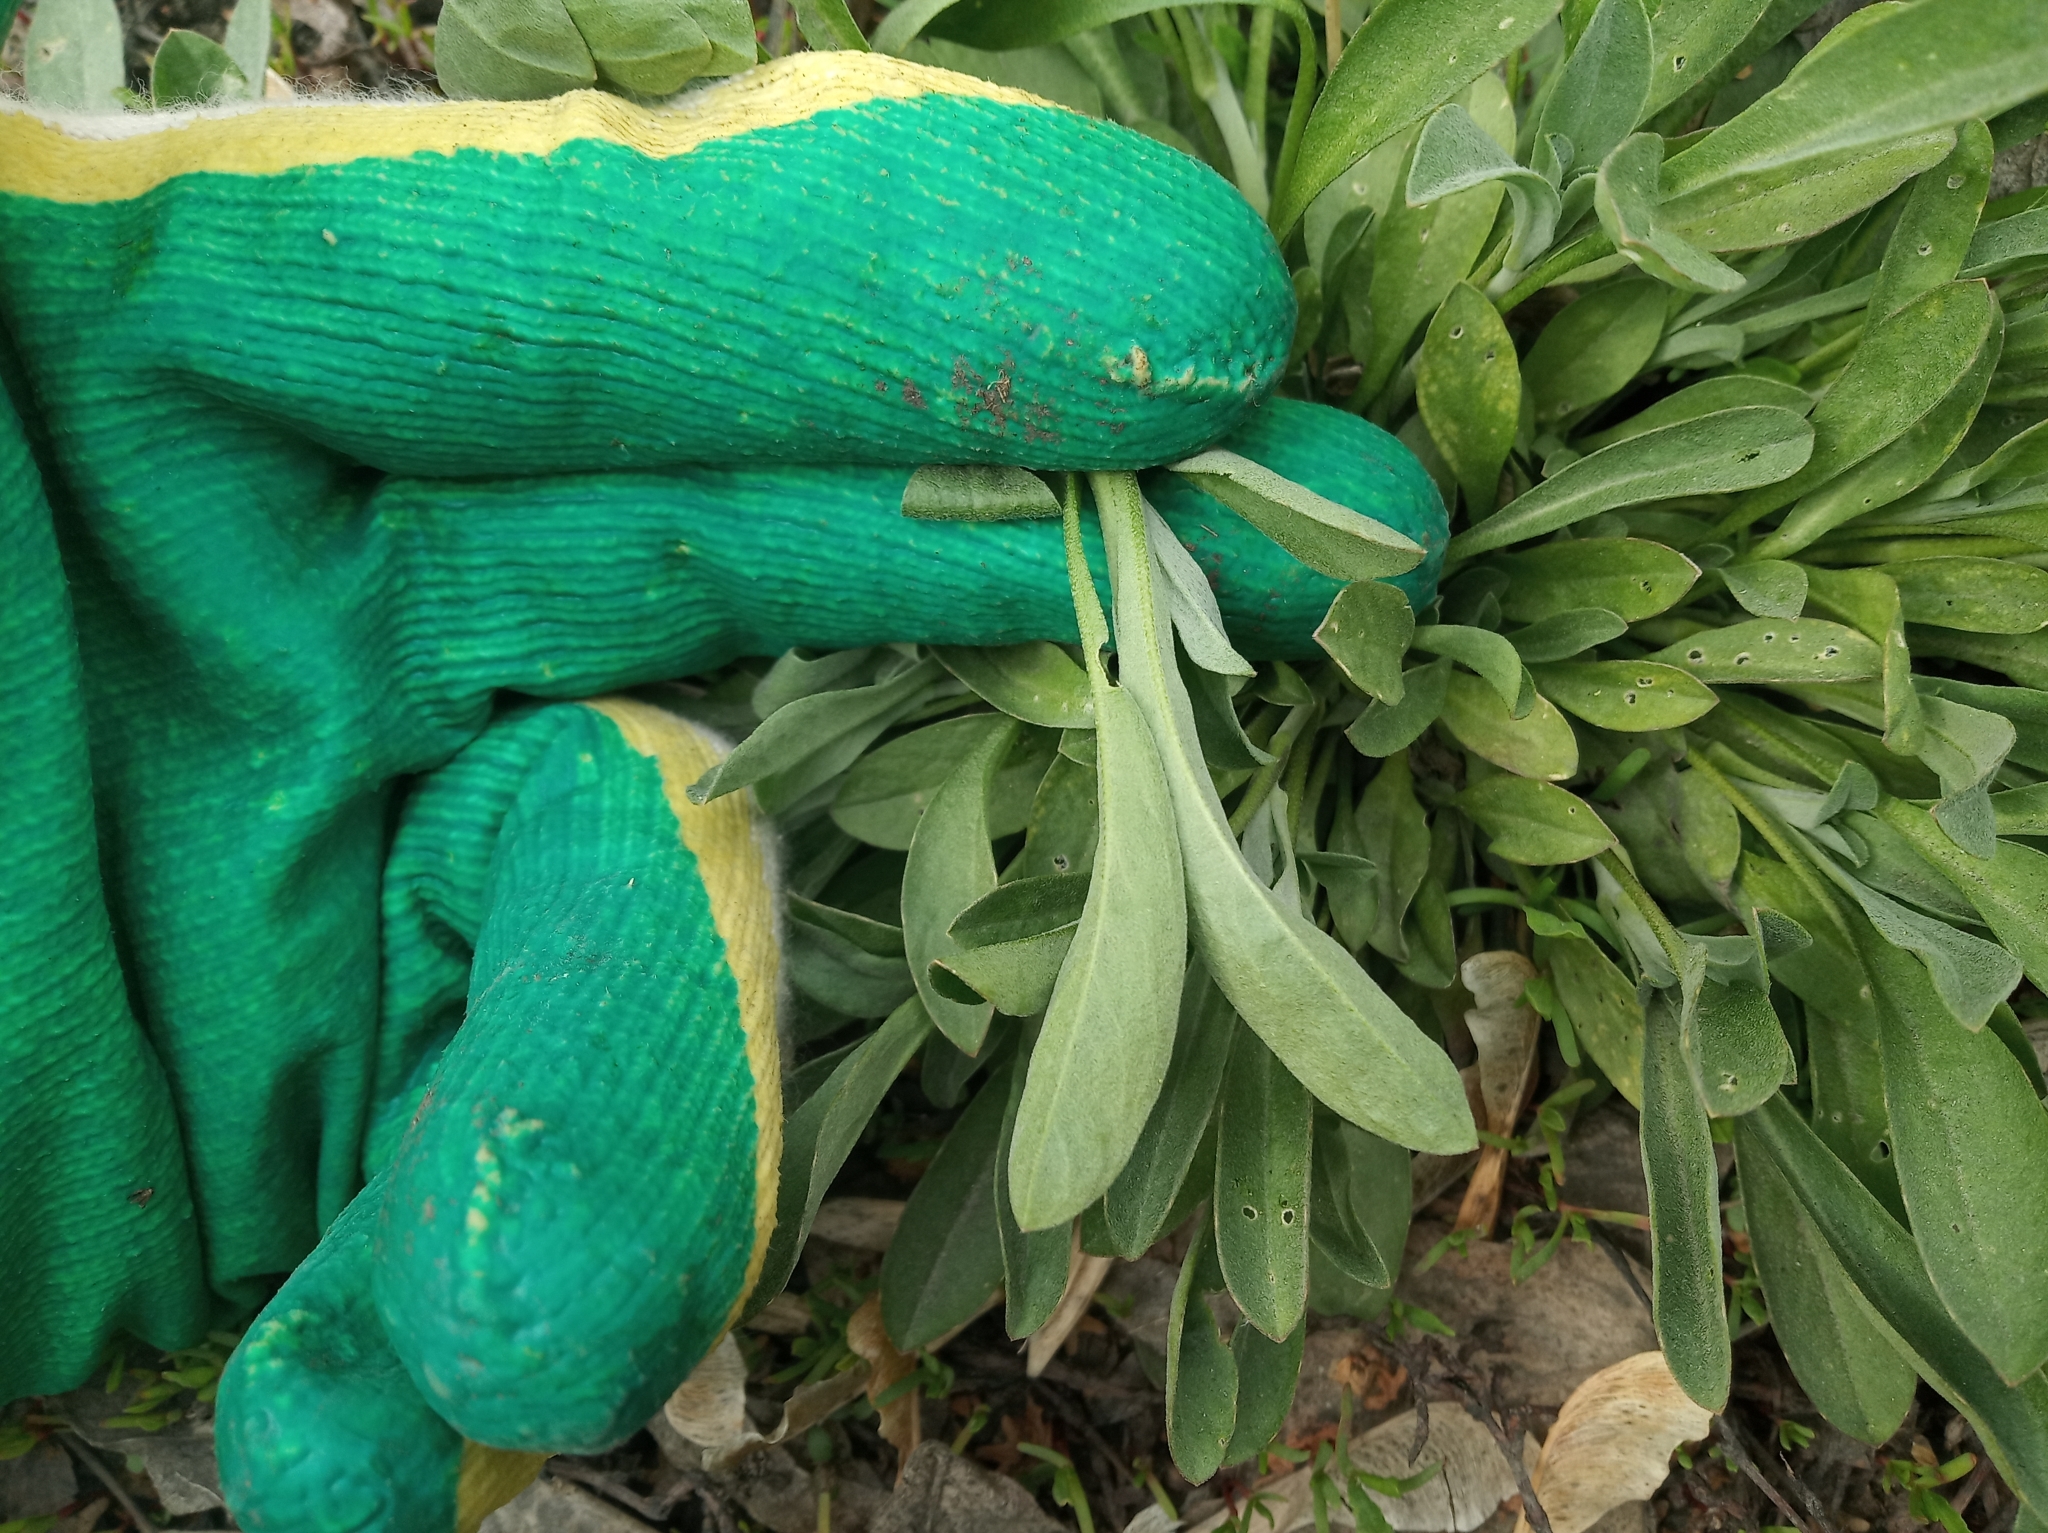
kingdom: Plantae
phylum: Tracheophyta
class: Magnoliopsida
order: Brassicales
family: Brassicaceae
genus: Berteroa
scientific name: Berteroa incana
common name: Hoary alison
